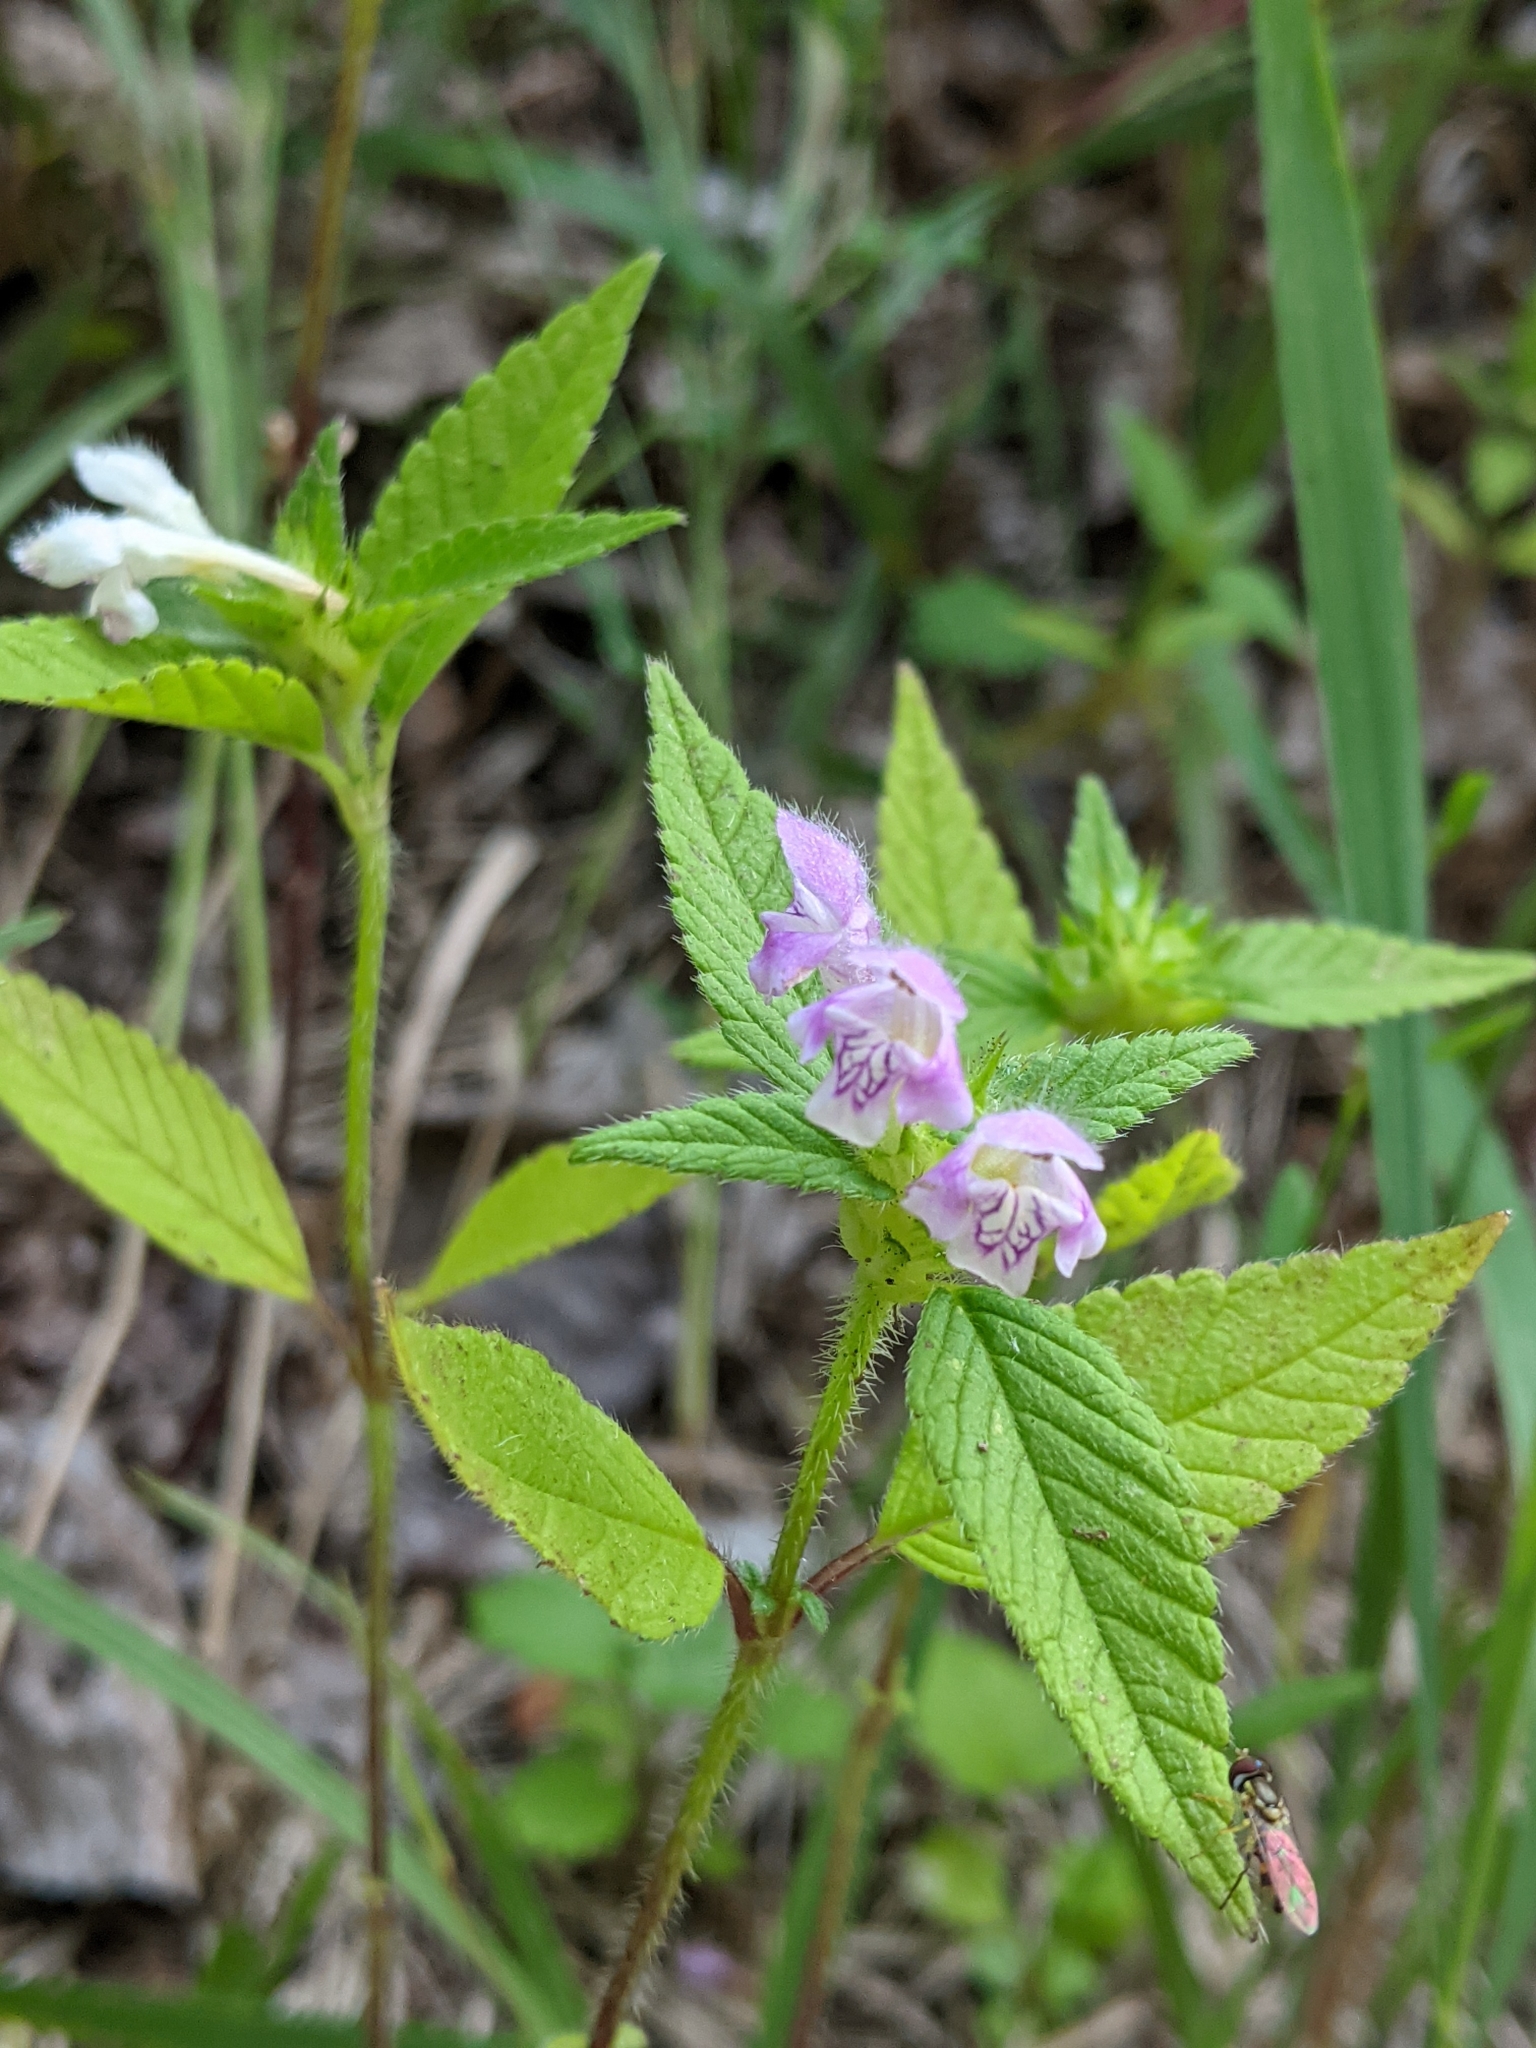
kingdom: Plantae
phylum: Tracheophyta
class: Magnoliopsida
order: Lamiales
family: Lamiaceae
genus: Galeopsis
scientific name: Galeopsis tetrahit
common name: Common hemp-nettle
